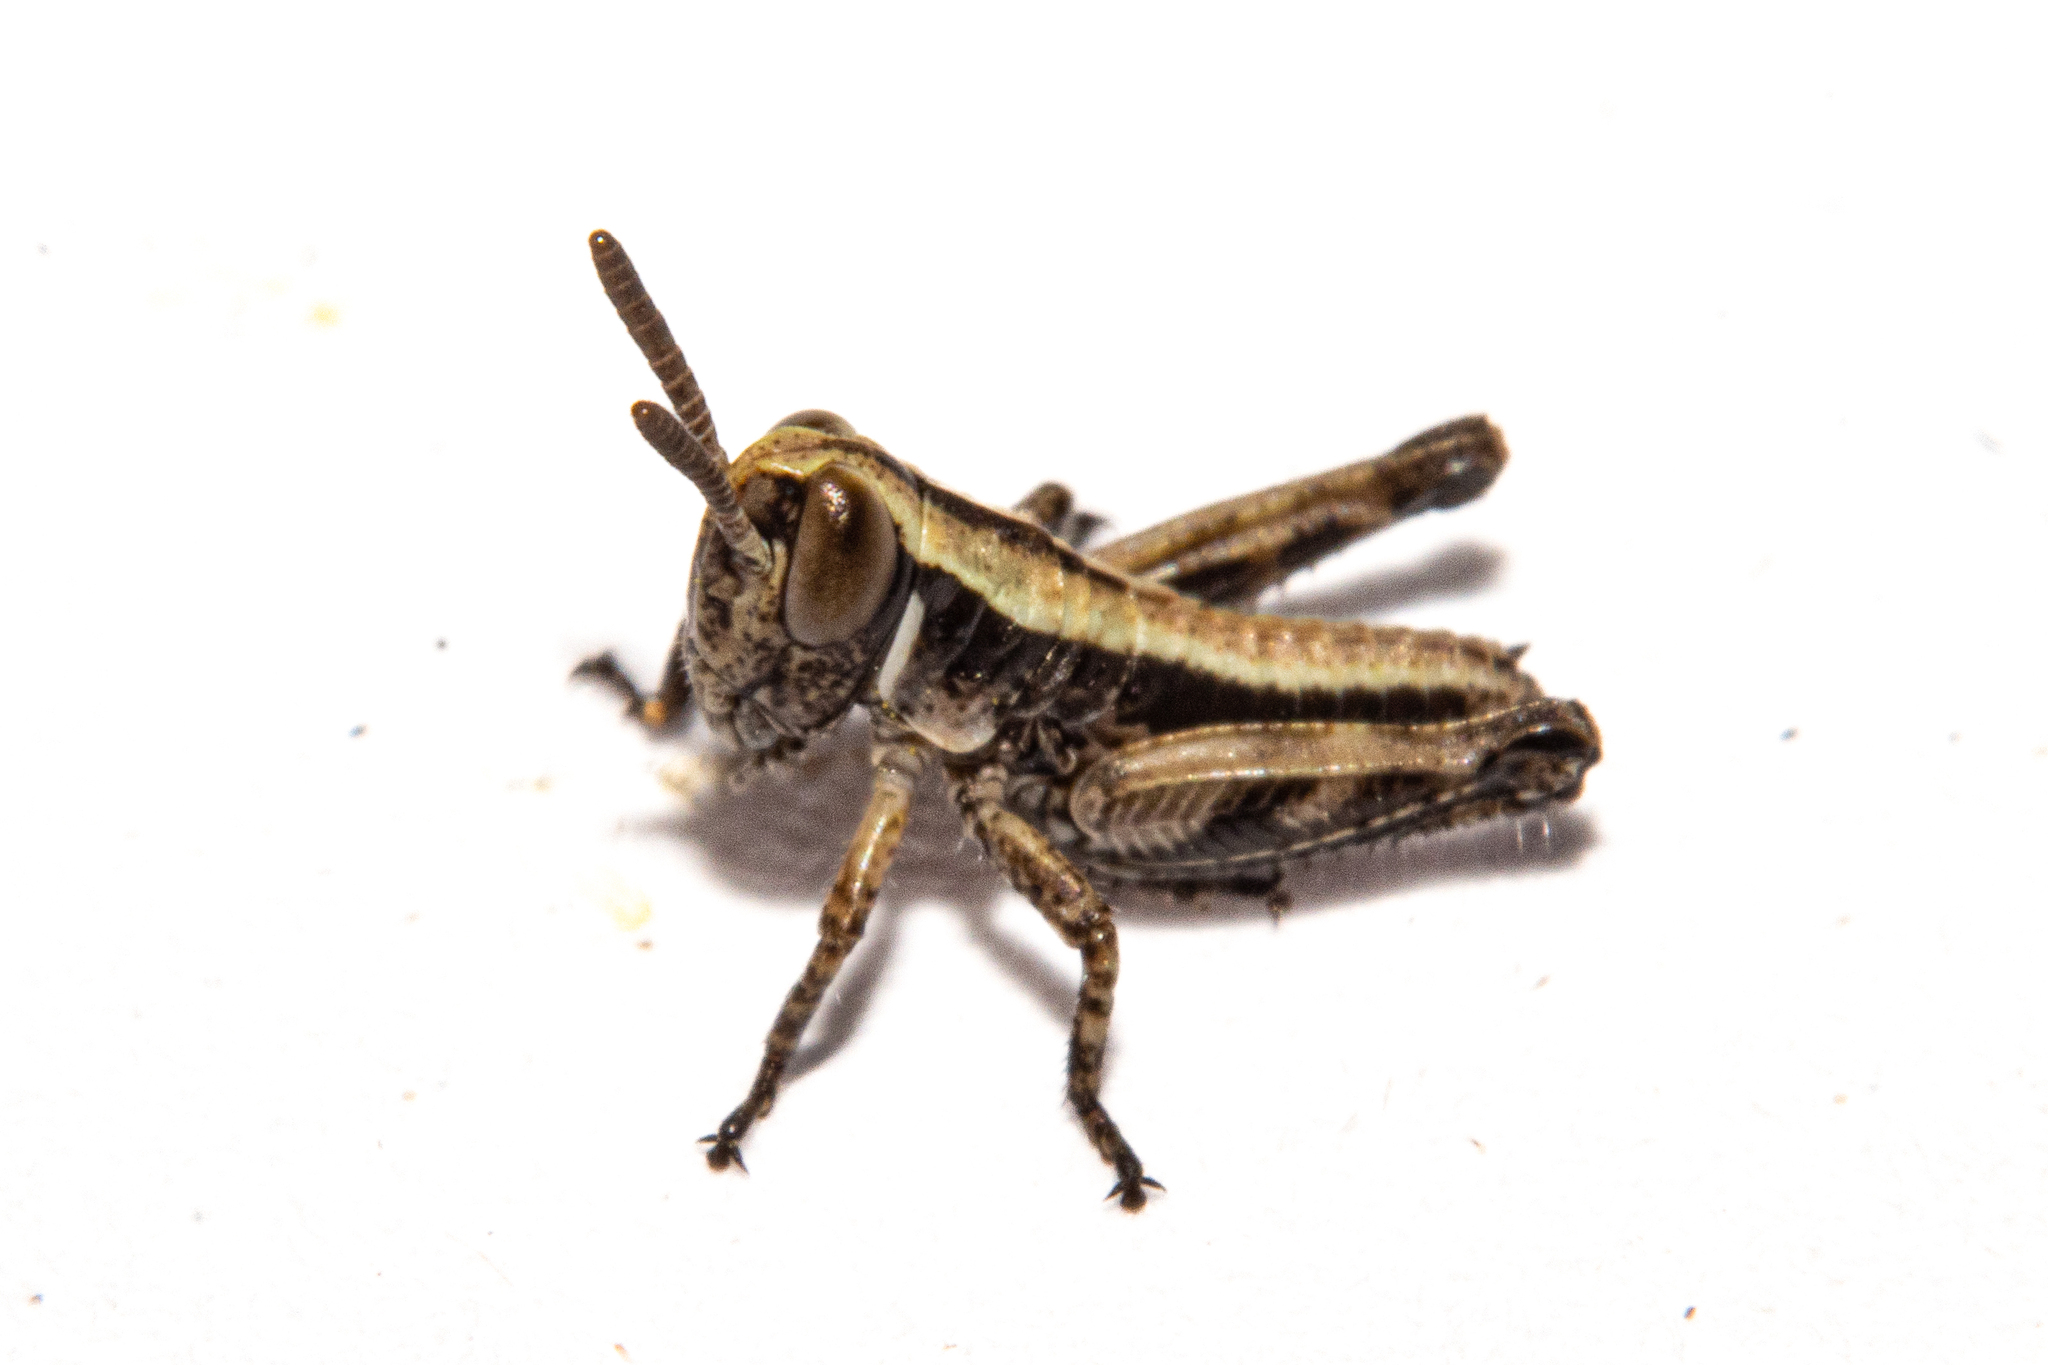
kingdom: Animalia
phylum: Arthropoda
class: Insecta
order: Orthoptera
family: Acrididae
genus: Sigaus
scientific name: Sigaus australis
